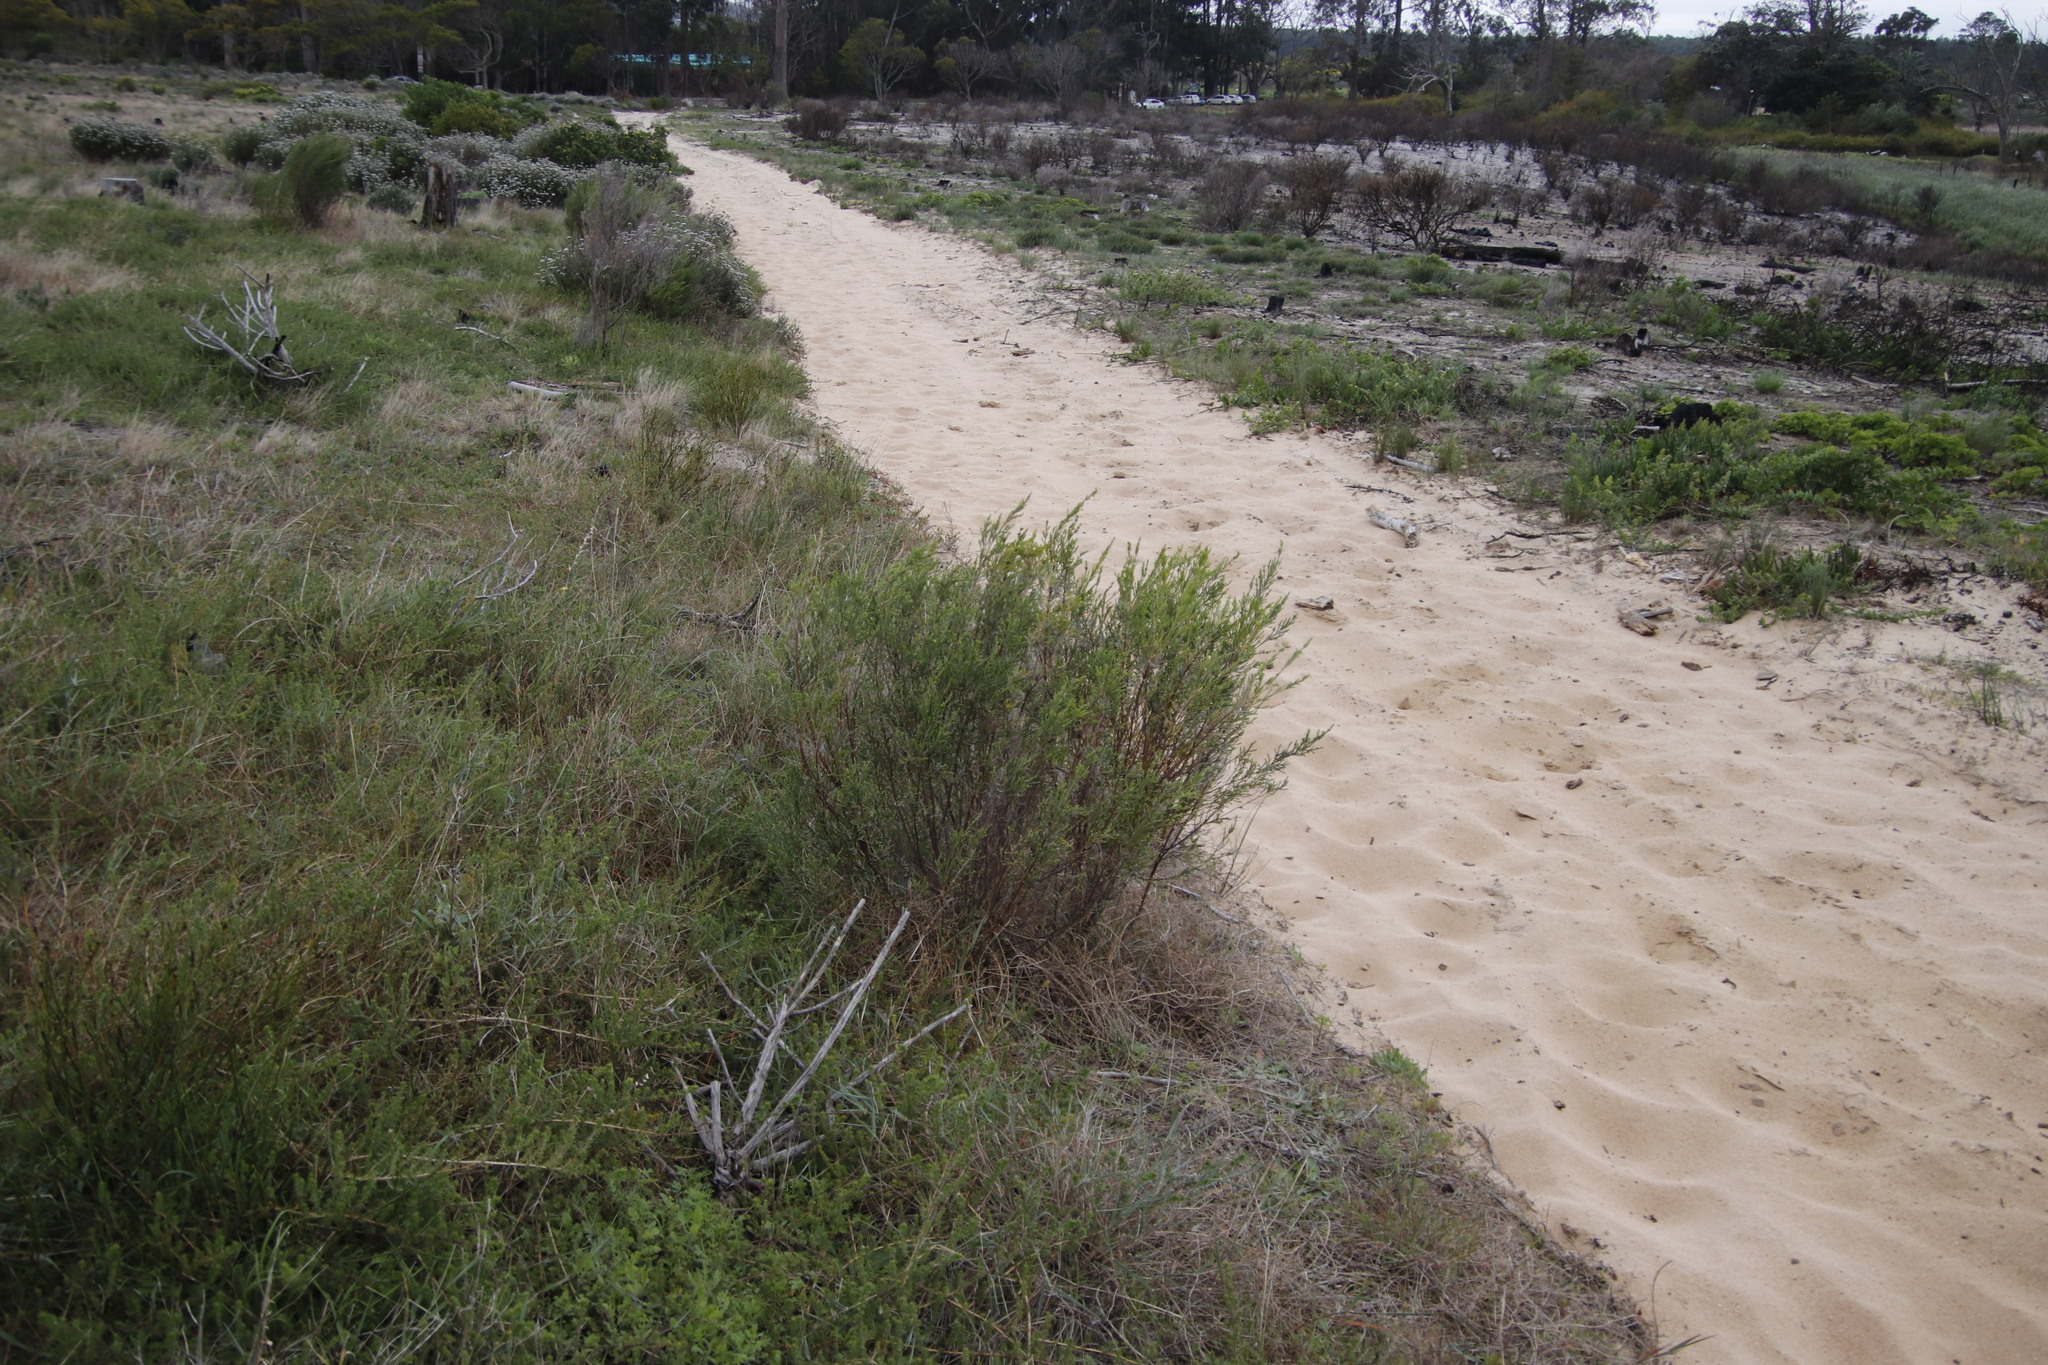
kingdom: Plantae
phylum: Tracheophyta
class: Magnoliopsida
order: Malvales
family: Thymelaeaceae
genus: Passerina
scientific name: Passerina corymbosa
